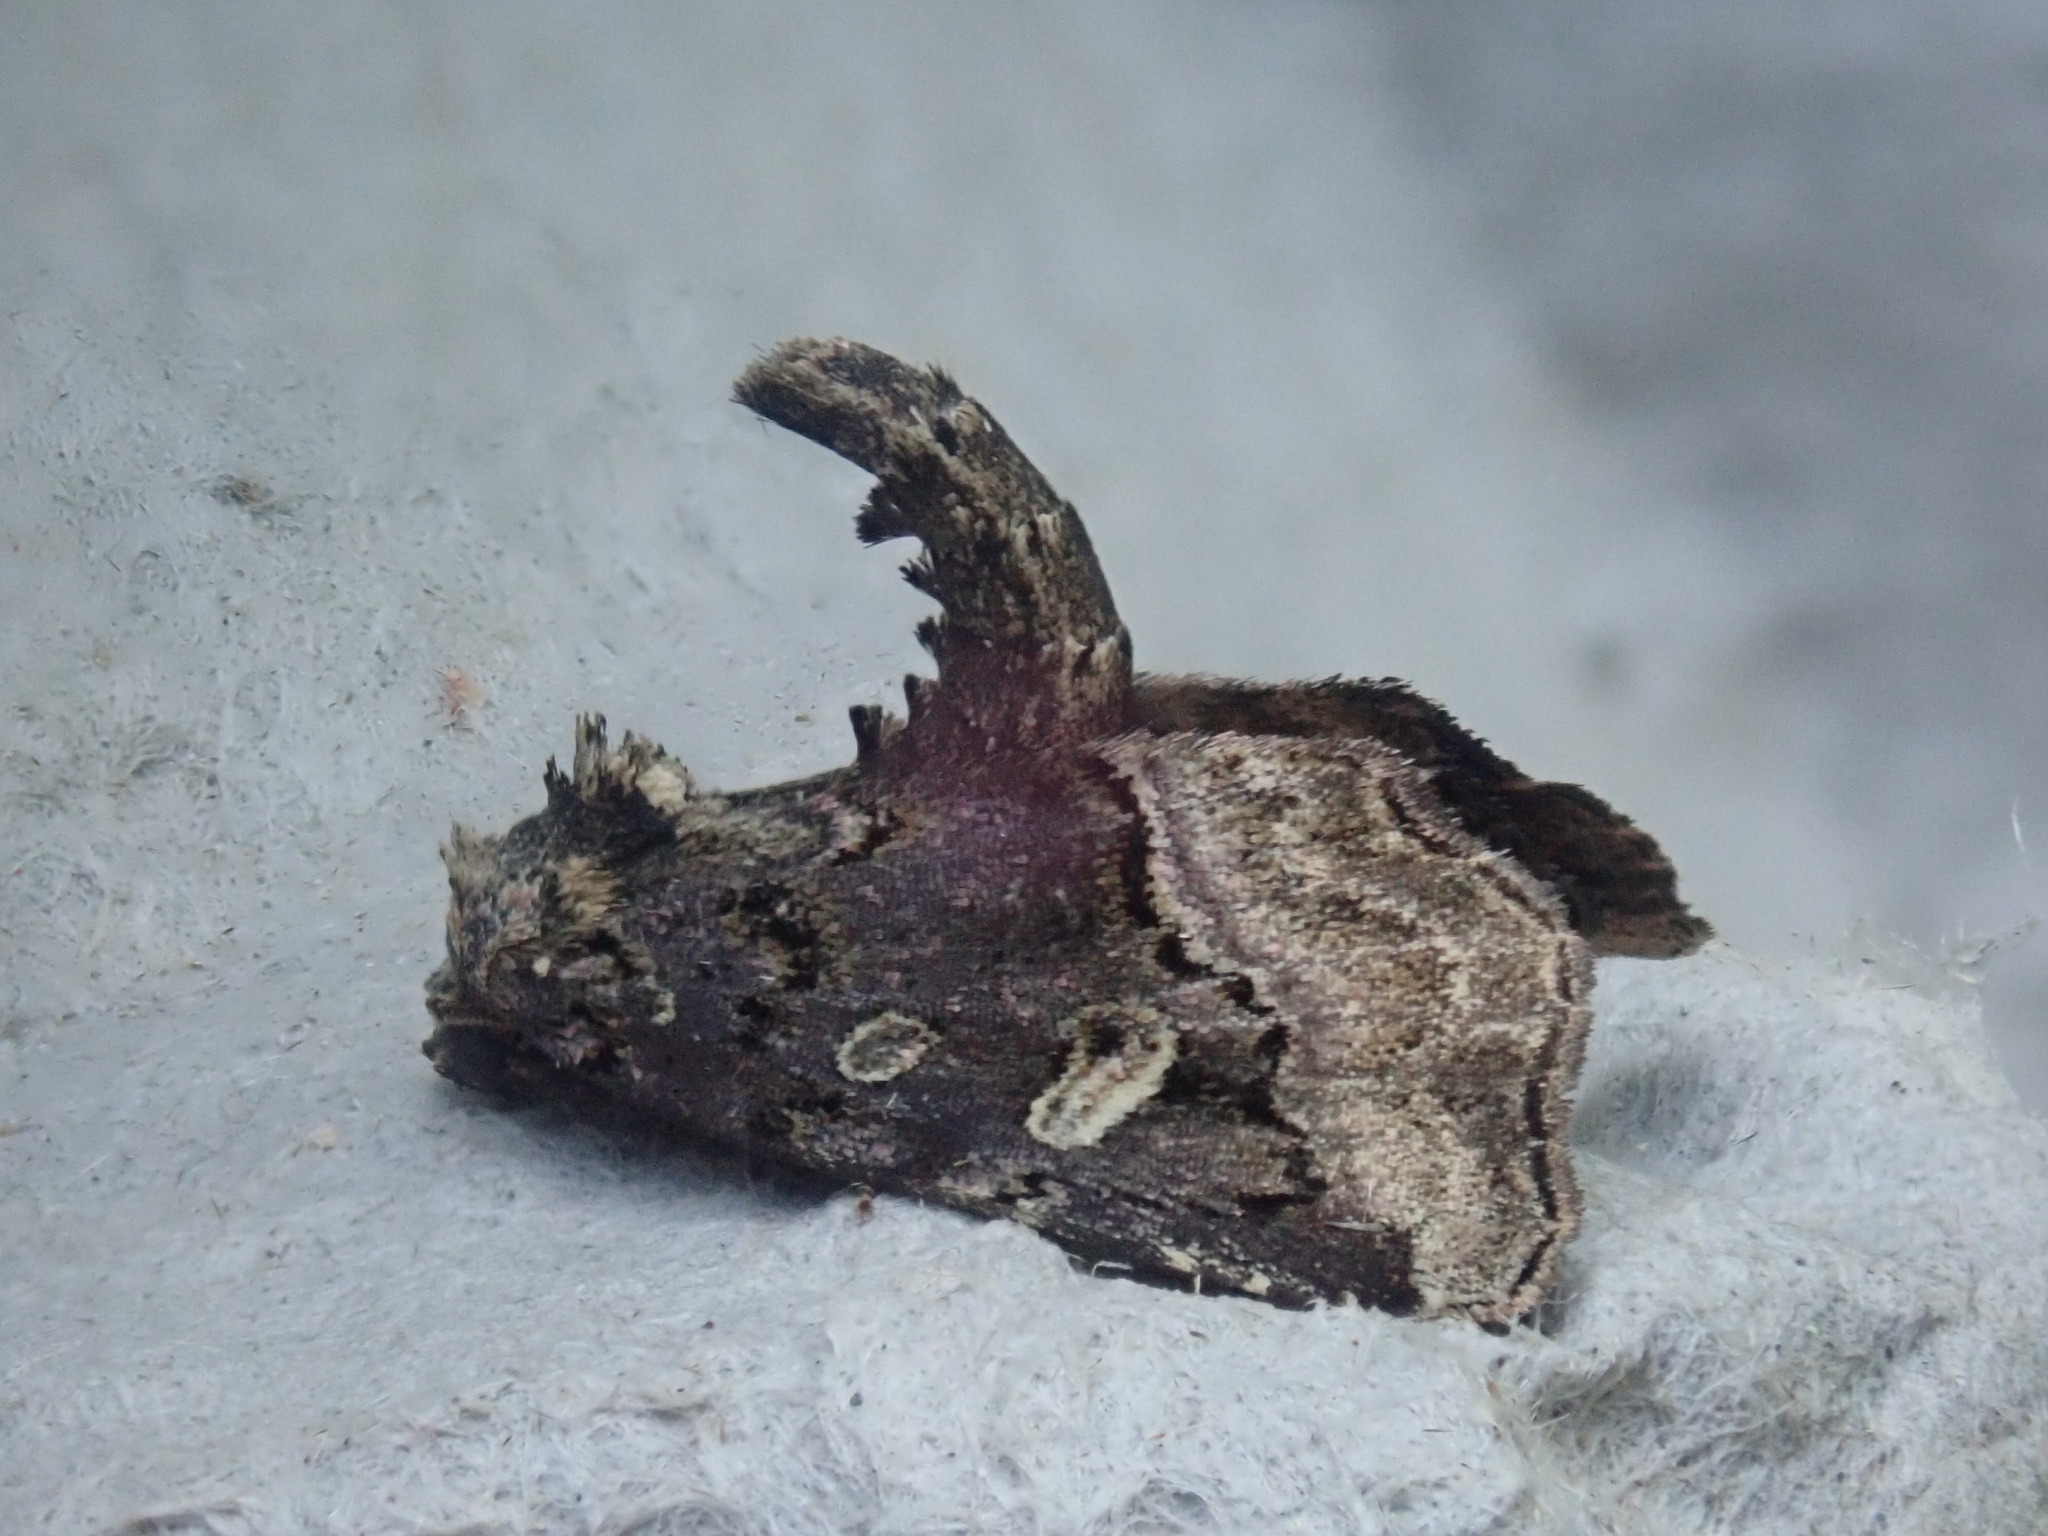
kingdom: Animalia
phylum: Arthropoda
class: Insecta
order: Lepidoptera
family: Noctuidae
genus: Homophoberia
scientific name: Homophoberia apicosa
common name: Black wedge-spot
